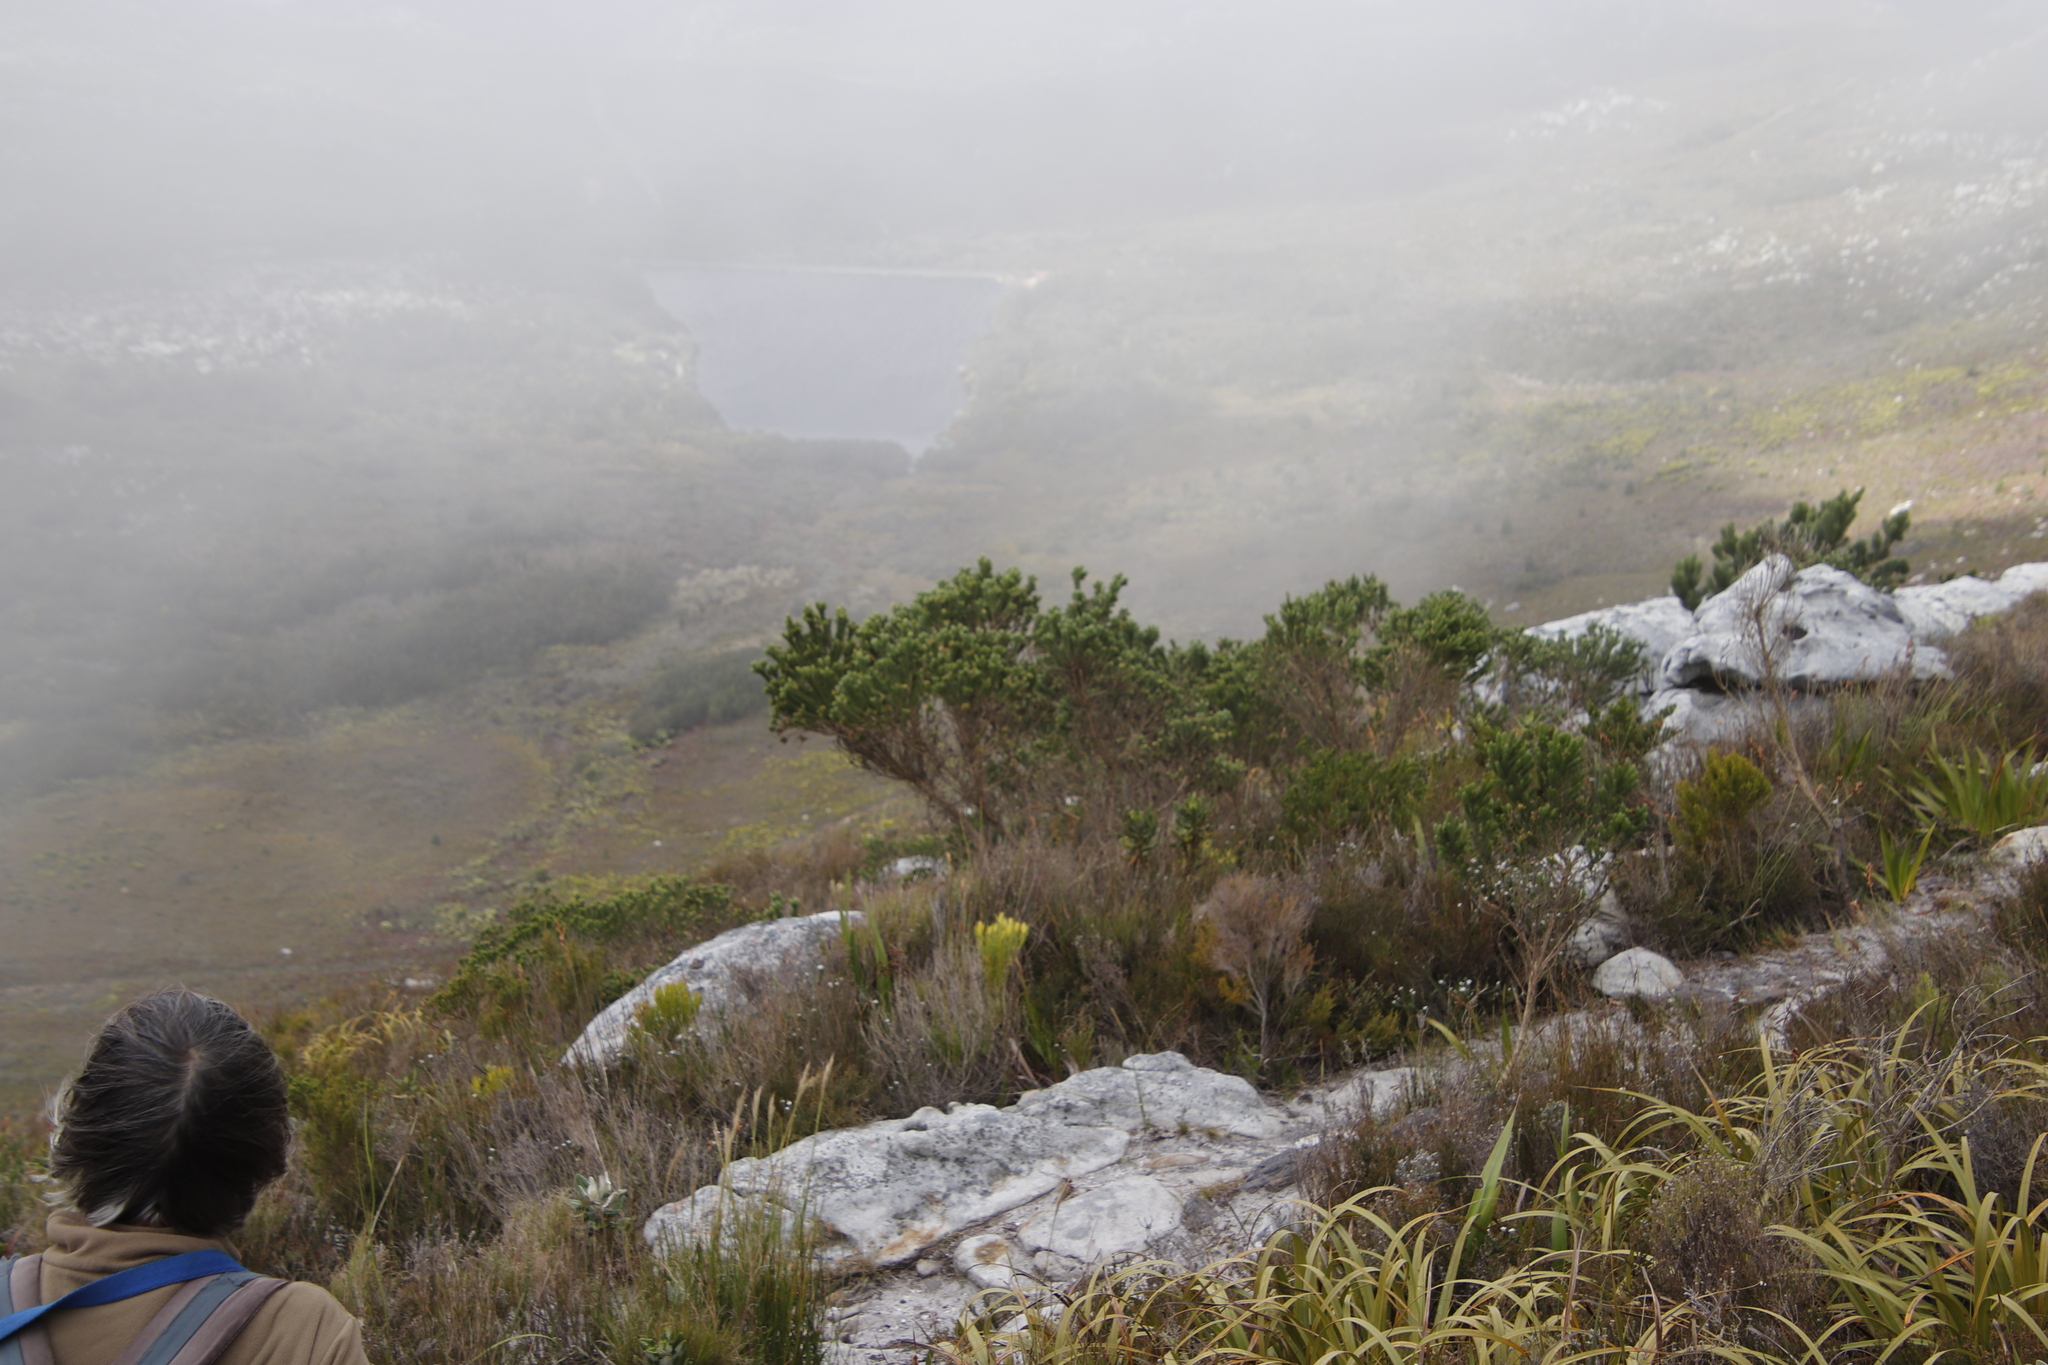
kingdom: Plantae
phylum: Tracheophyta
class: Magnoliopsida
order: Fabales
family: Fabaceae
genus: Aspalathus
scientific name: Aspalathus capitata
